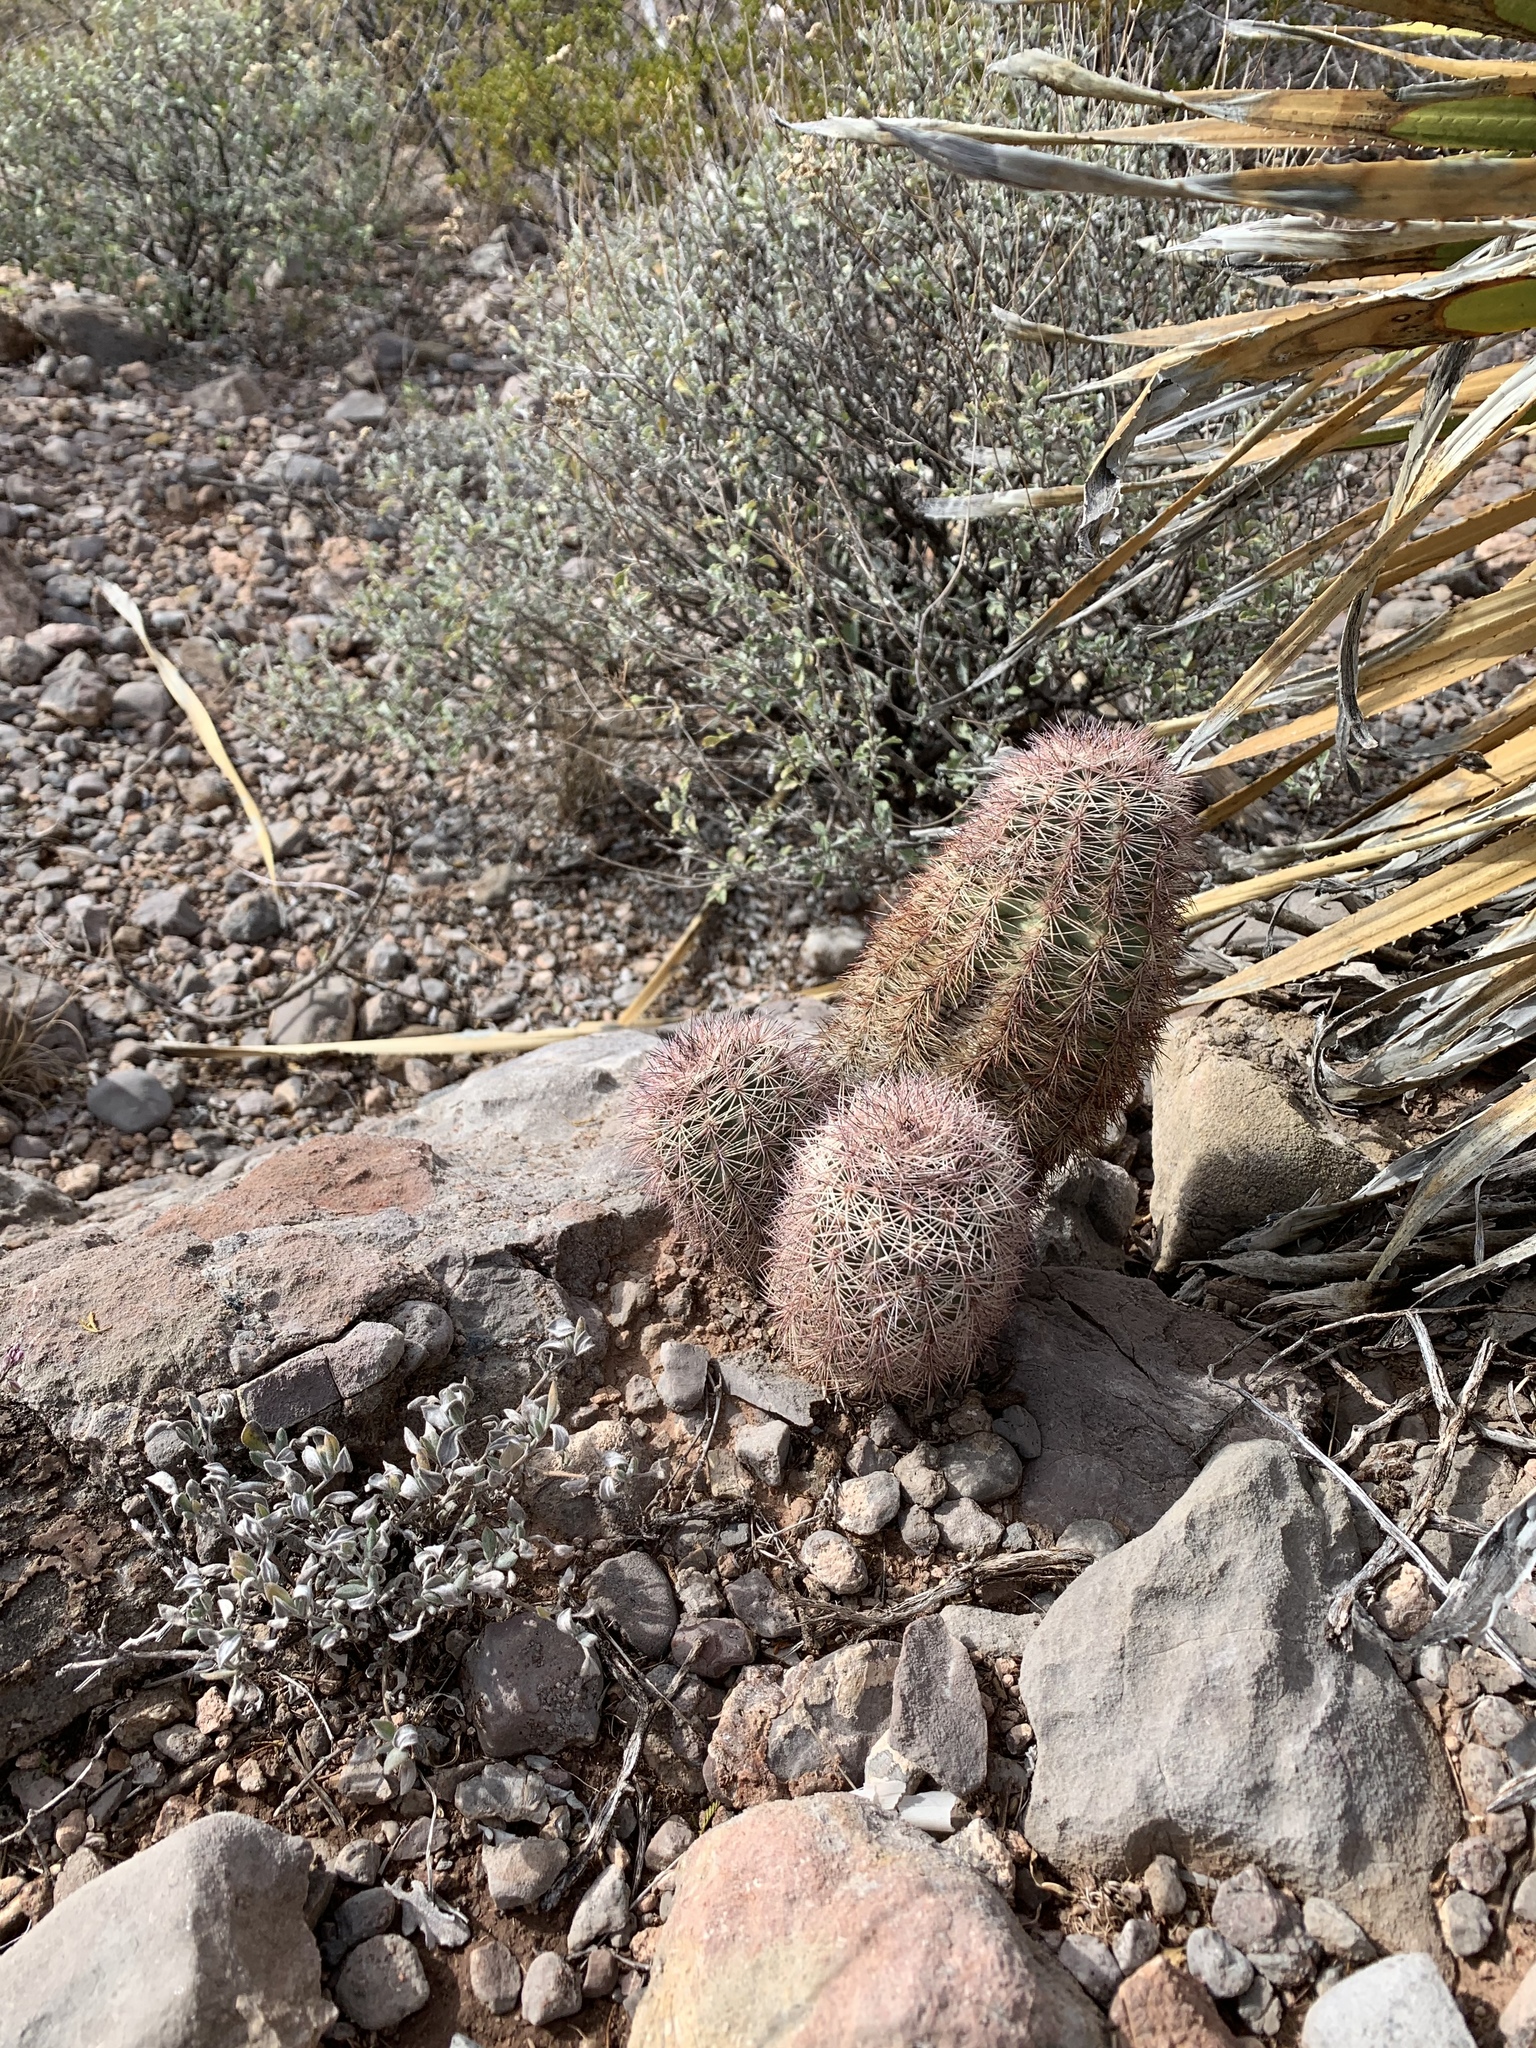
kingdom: Plantae
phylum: Tracheophyta
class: Magnoliopsida
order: Caryophyllales
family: Cactaceae
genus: Echinocereus
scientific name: Echinocereus dasyacanthus
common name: Spiny hedgehog cactus
